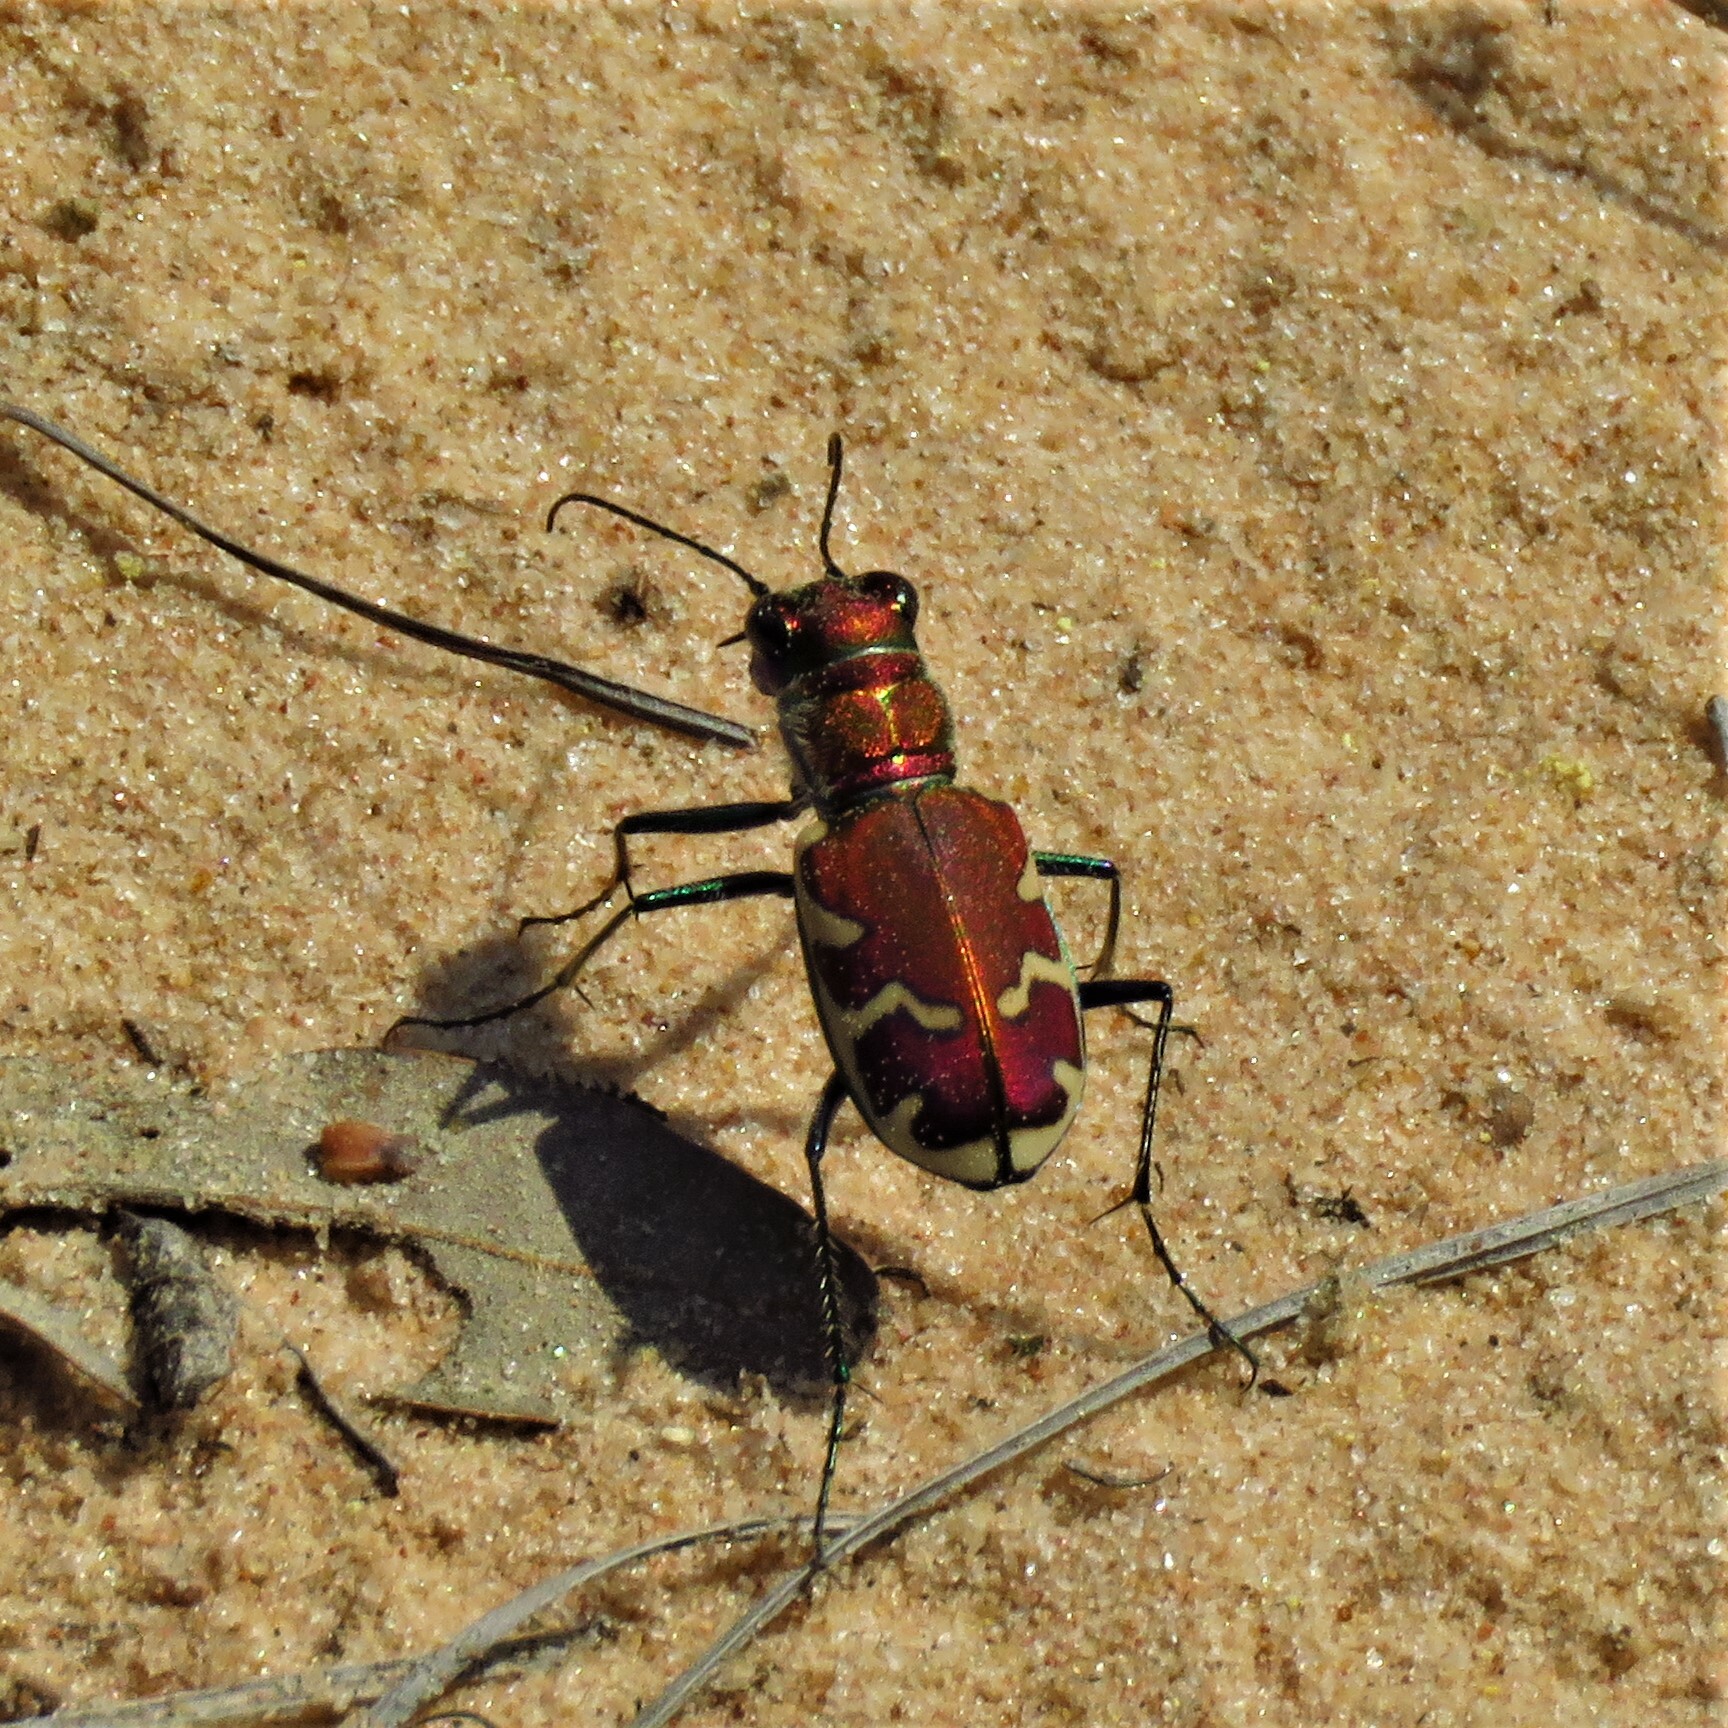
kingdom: Animalia
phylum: Arthropoda
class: Insecta
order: Coleoptera
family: Carabidae
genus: Cicindela
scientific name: Cicindela formosa
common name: Big sand tiger beetle
